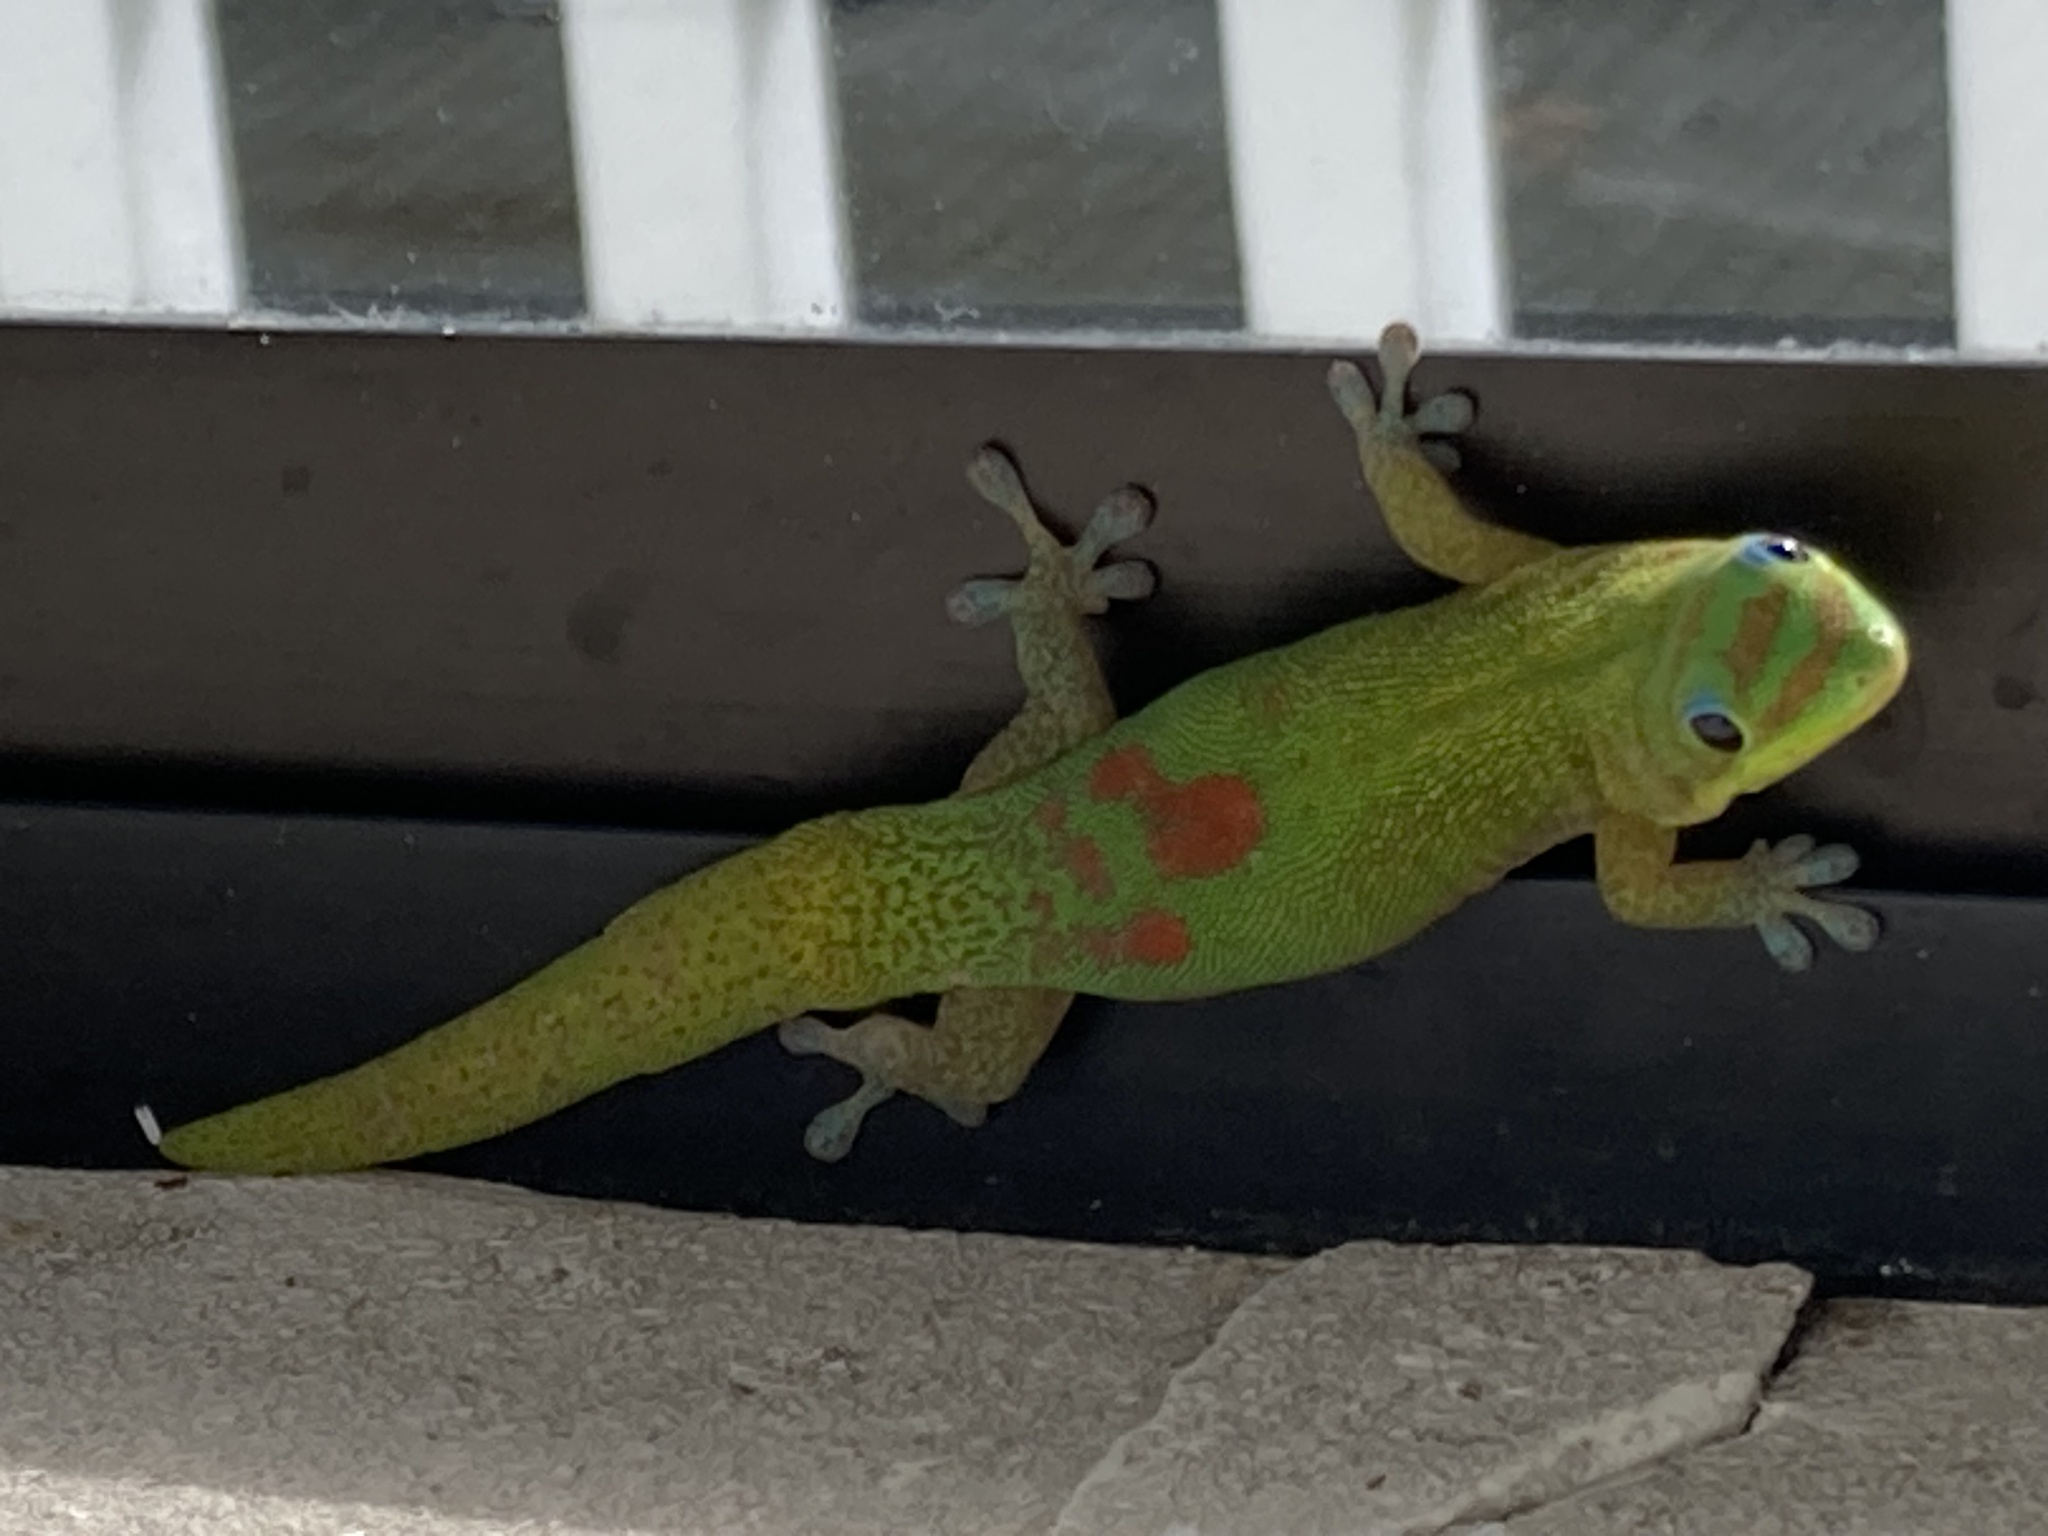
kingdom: Animalia
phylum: Chordata
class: Squamata
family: Gekkonidae
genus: Phelsuma
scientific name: Phelsuma laticauda
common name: Gold dust day gecko
